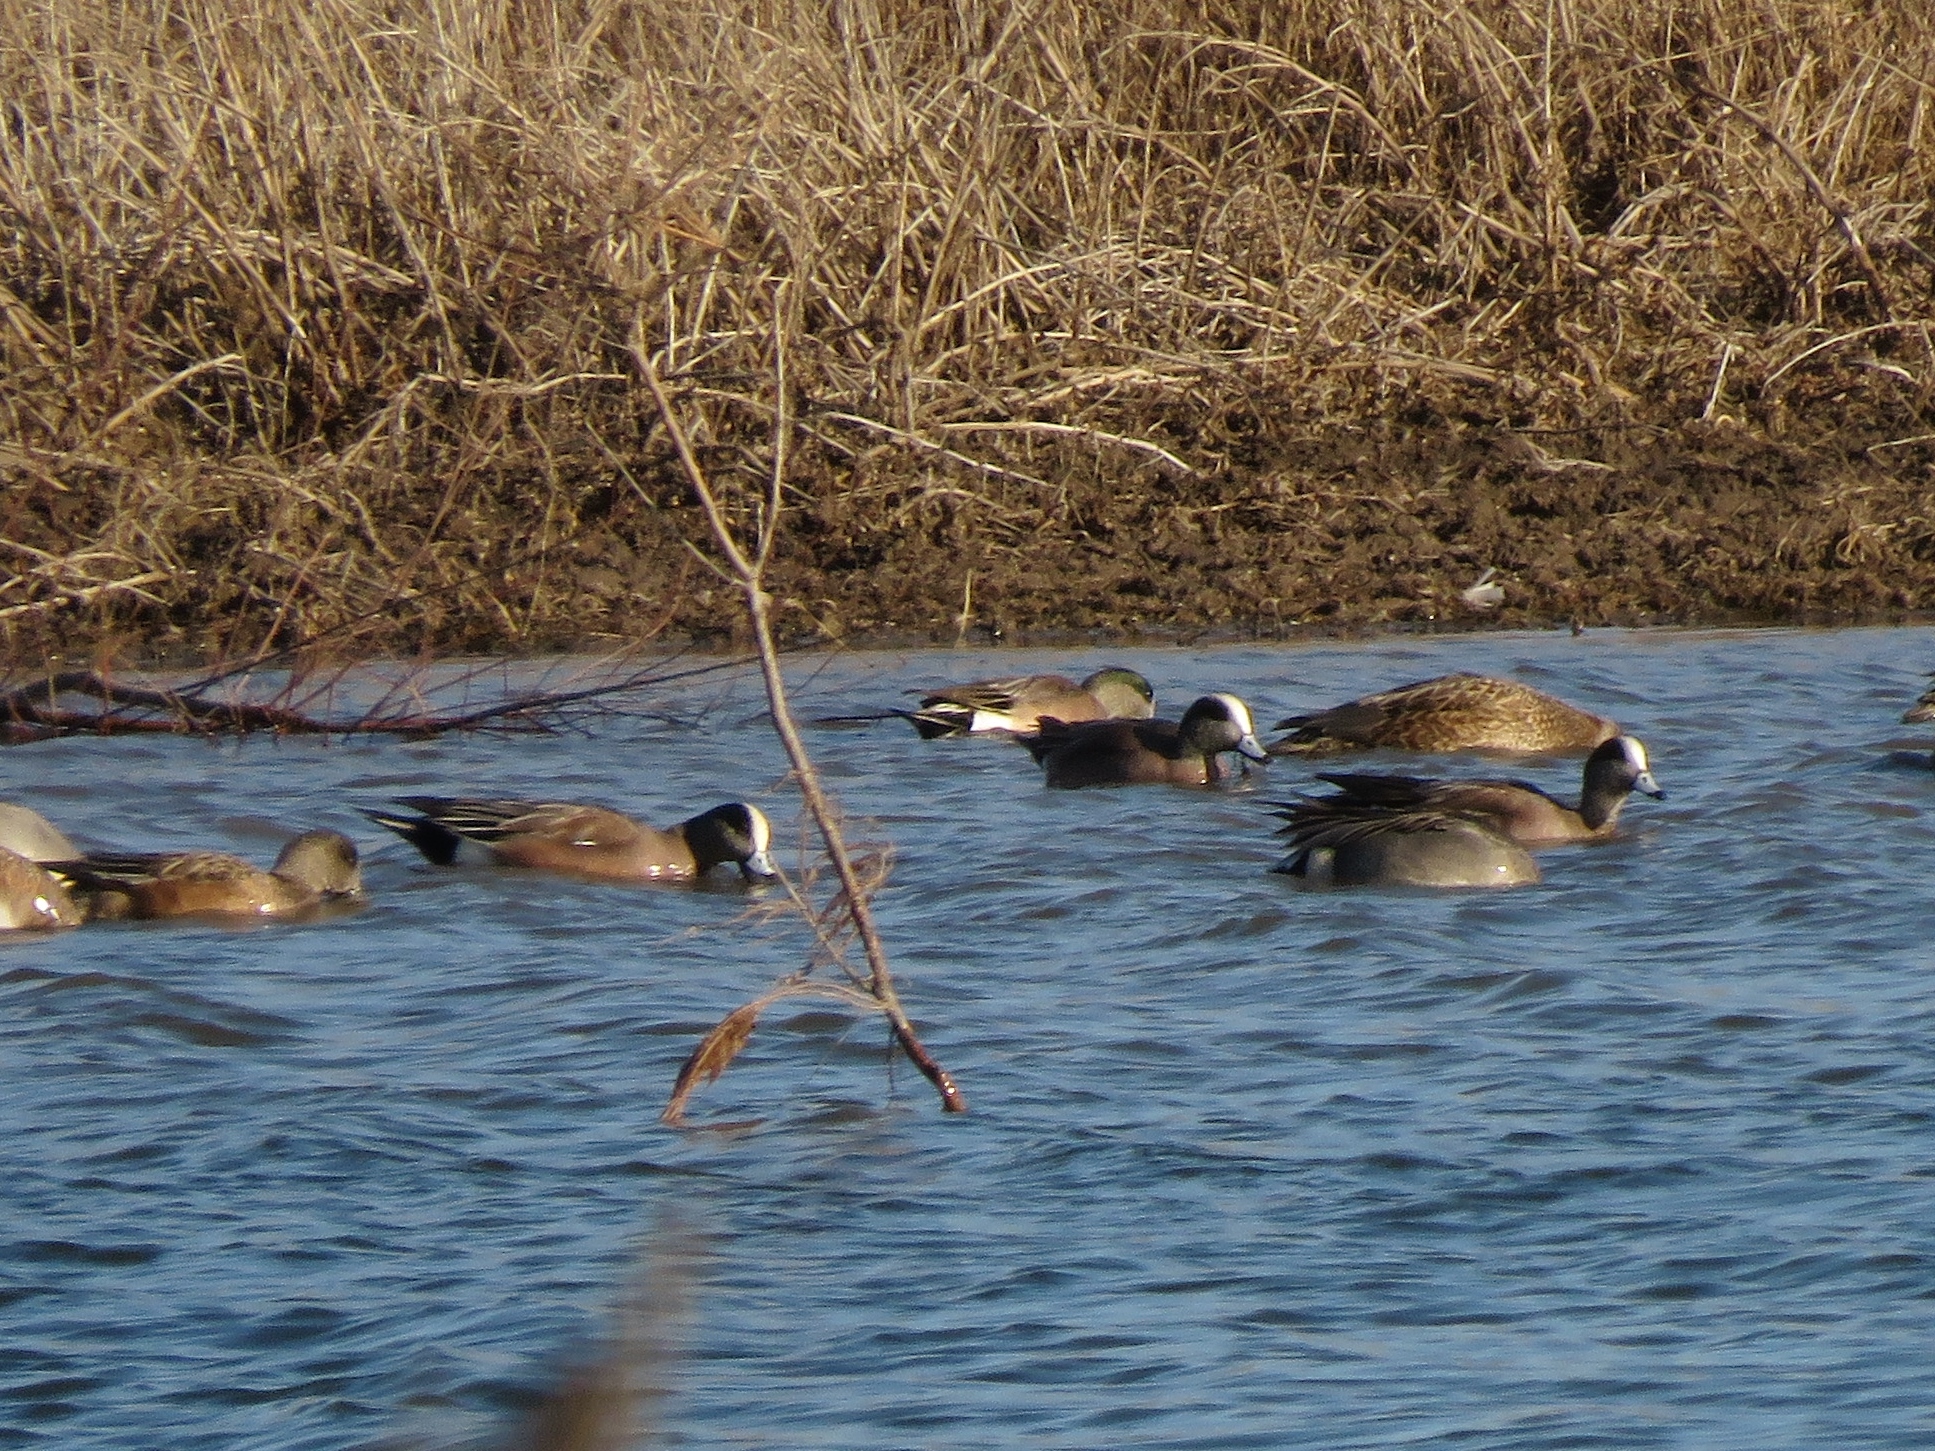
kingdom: Animalia
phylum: Chordata
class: Aves
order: Anseriformes
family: Anatidae
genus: Mareca
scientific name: Mareca americana
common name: American wigeon
